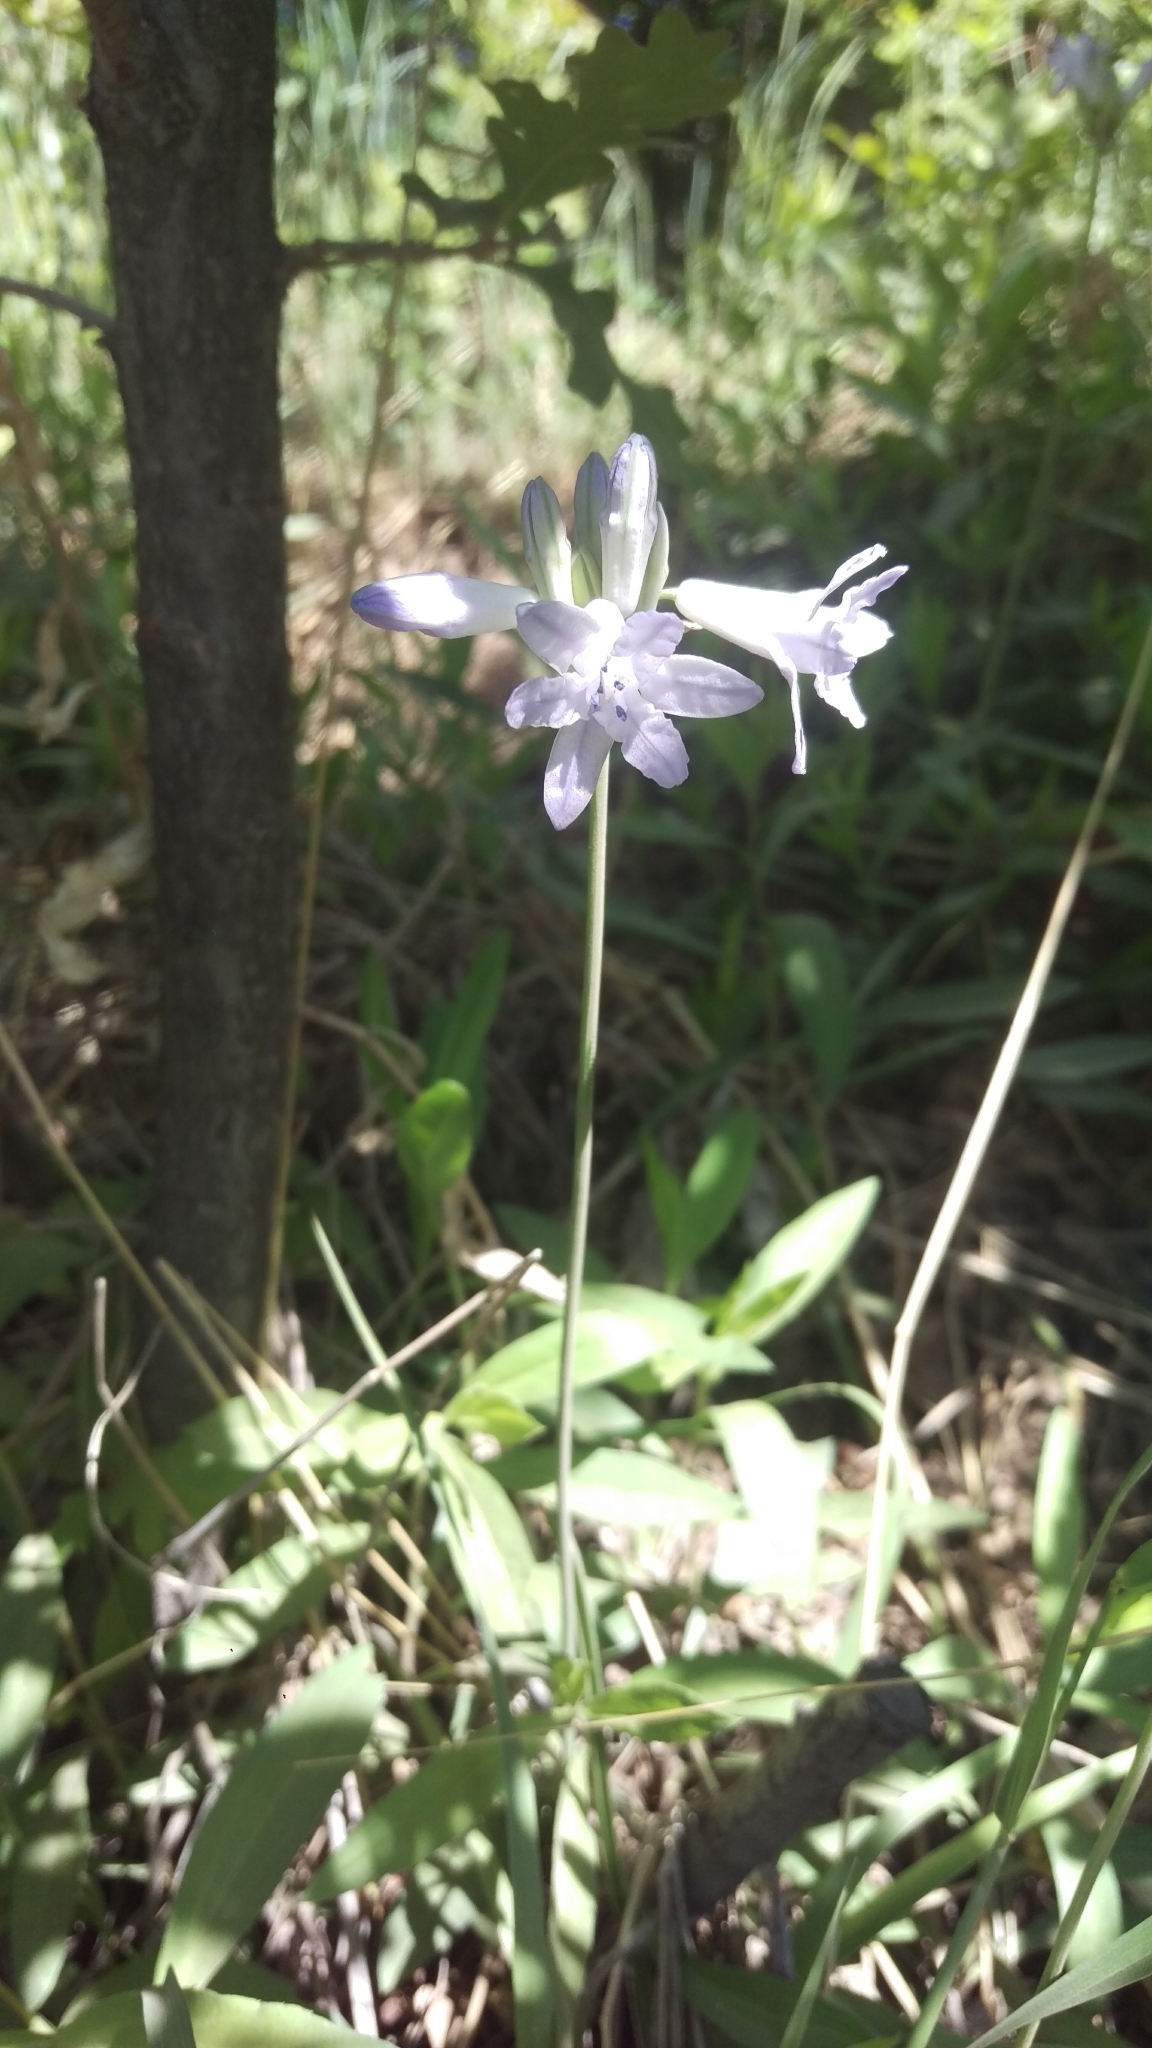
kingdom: Plantae
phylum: Tracheophyta
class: Liliopsida
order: Asparagales
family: Asparagaceae
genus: Triteleia
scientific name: Triteleia grandiflora
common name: Wild hyacinth
